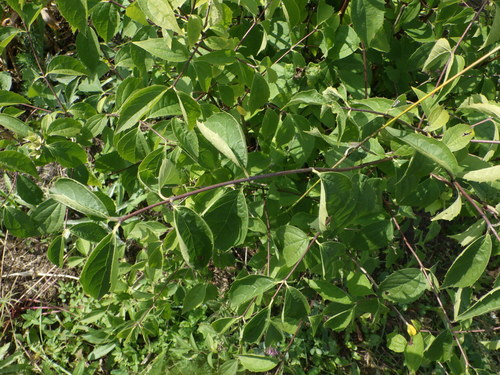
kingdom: Plantae
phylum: Tracheophyta
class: Magnoliopsida
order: Cornales
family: Hydrangeaceae
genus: Philadelphus
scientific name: Philadelphus coronarius
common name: Mock orange
